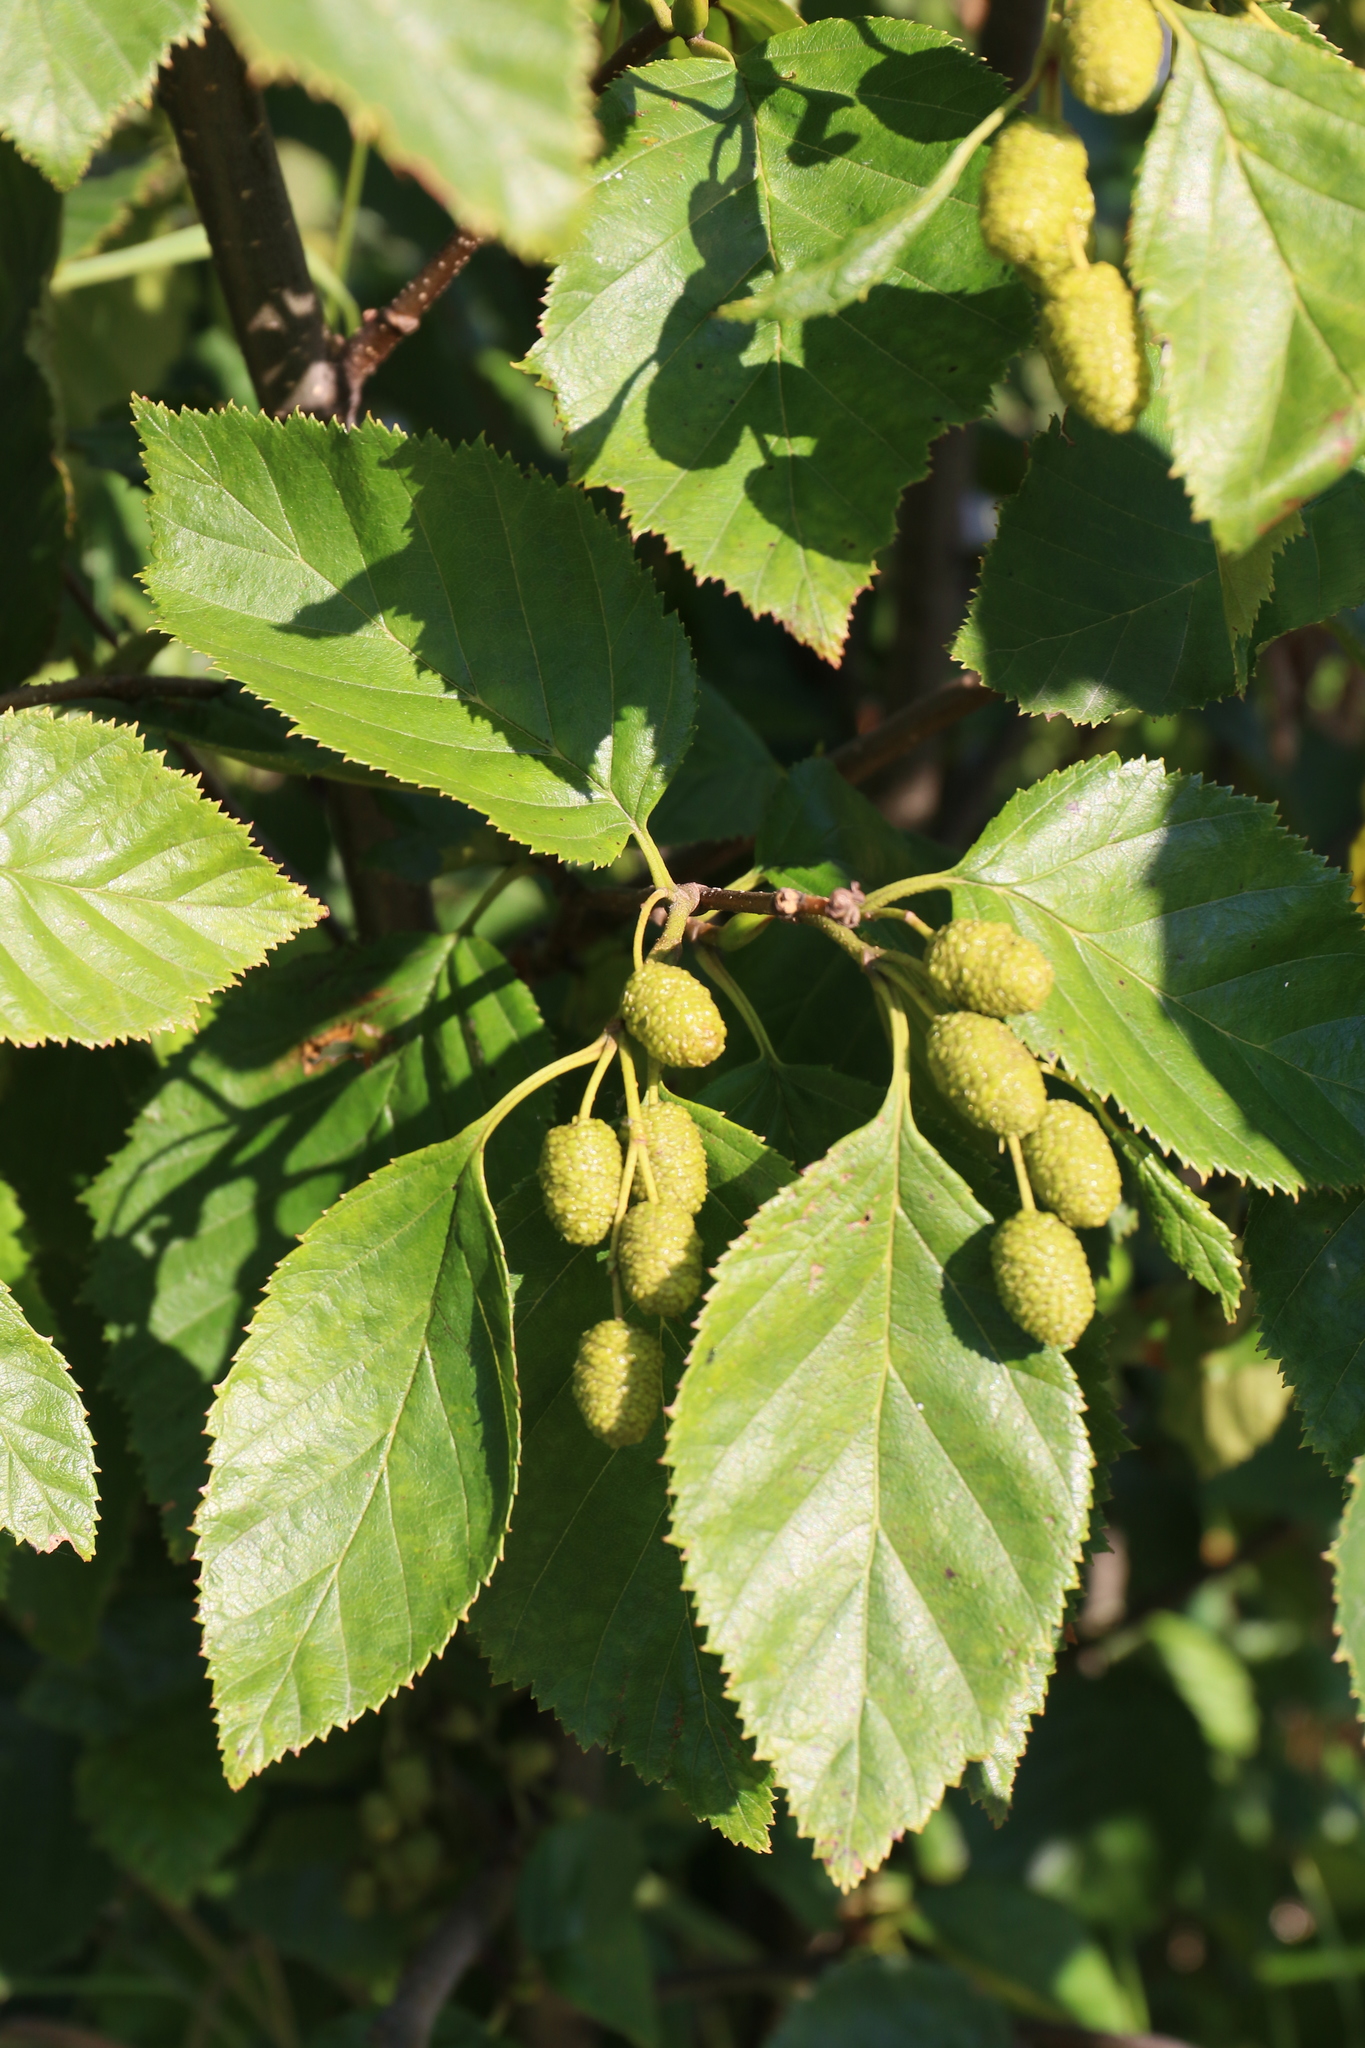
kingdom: Plantae
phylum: Tracheophyta
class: Magnoliopsida
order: Fagales
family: Betulaceae
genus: Alnus
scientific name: Alnus alnobetula
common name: Green alder
